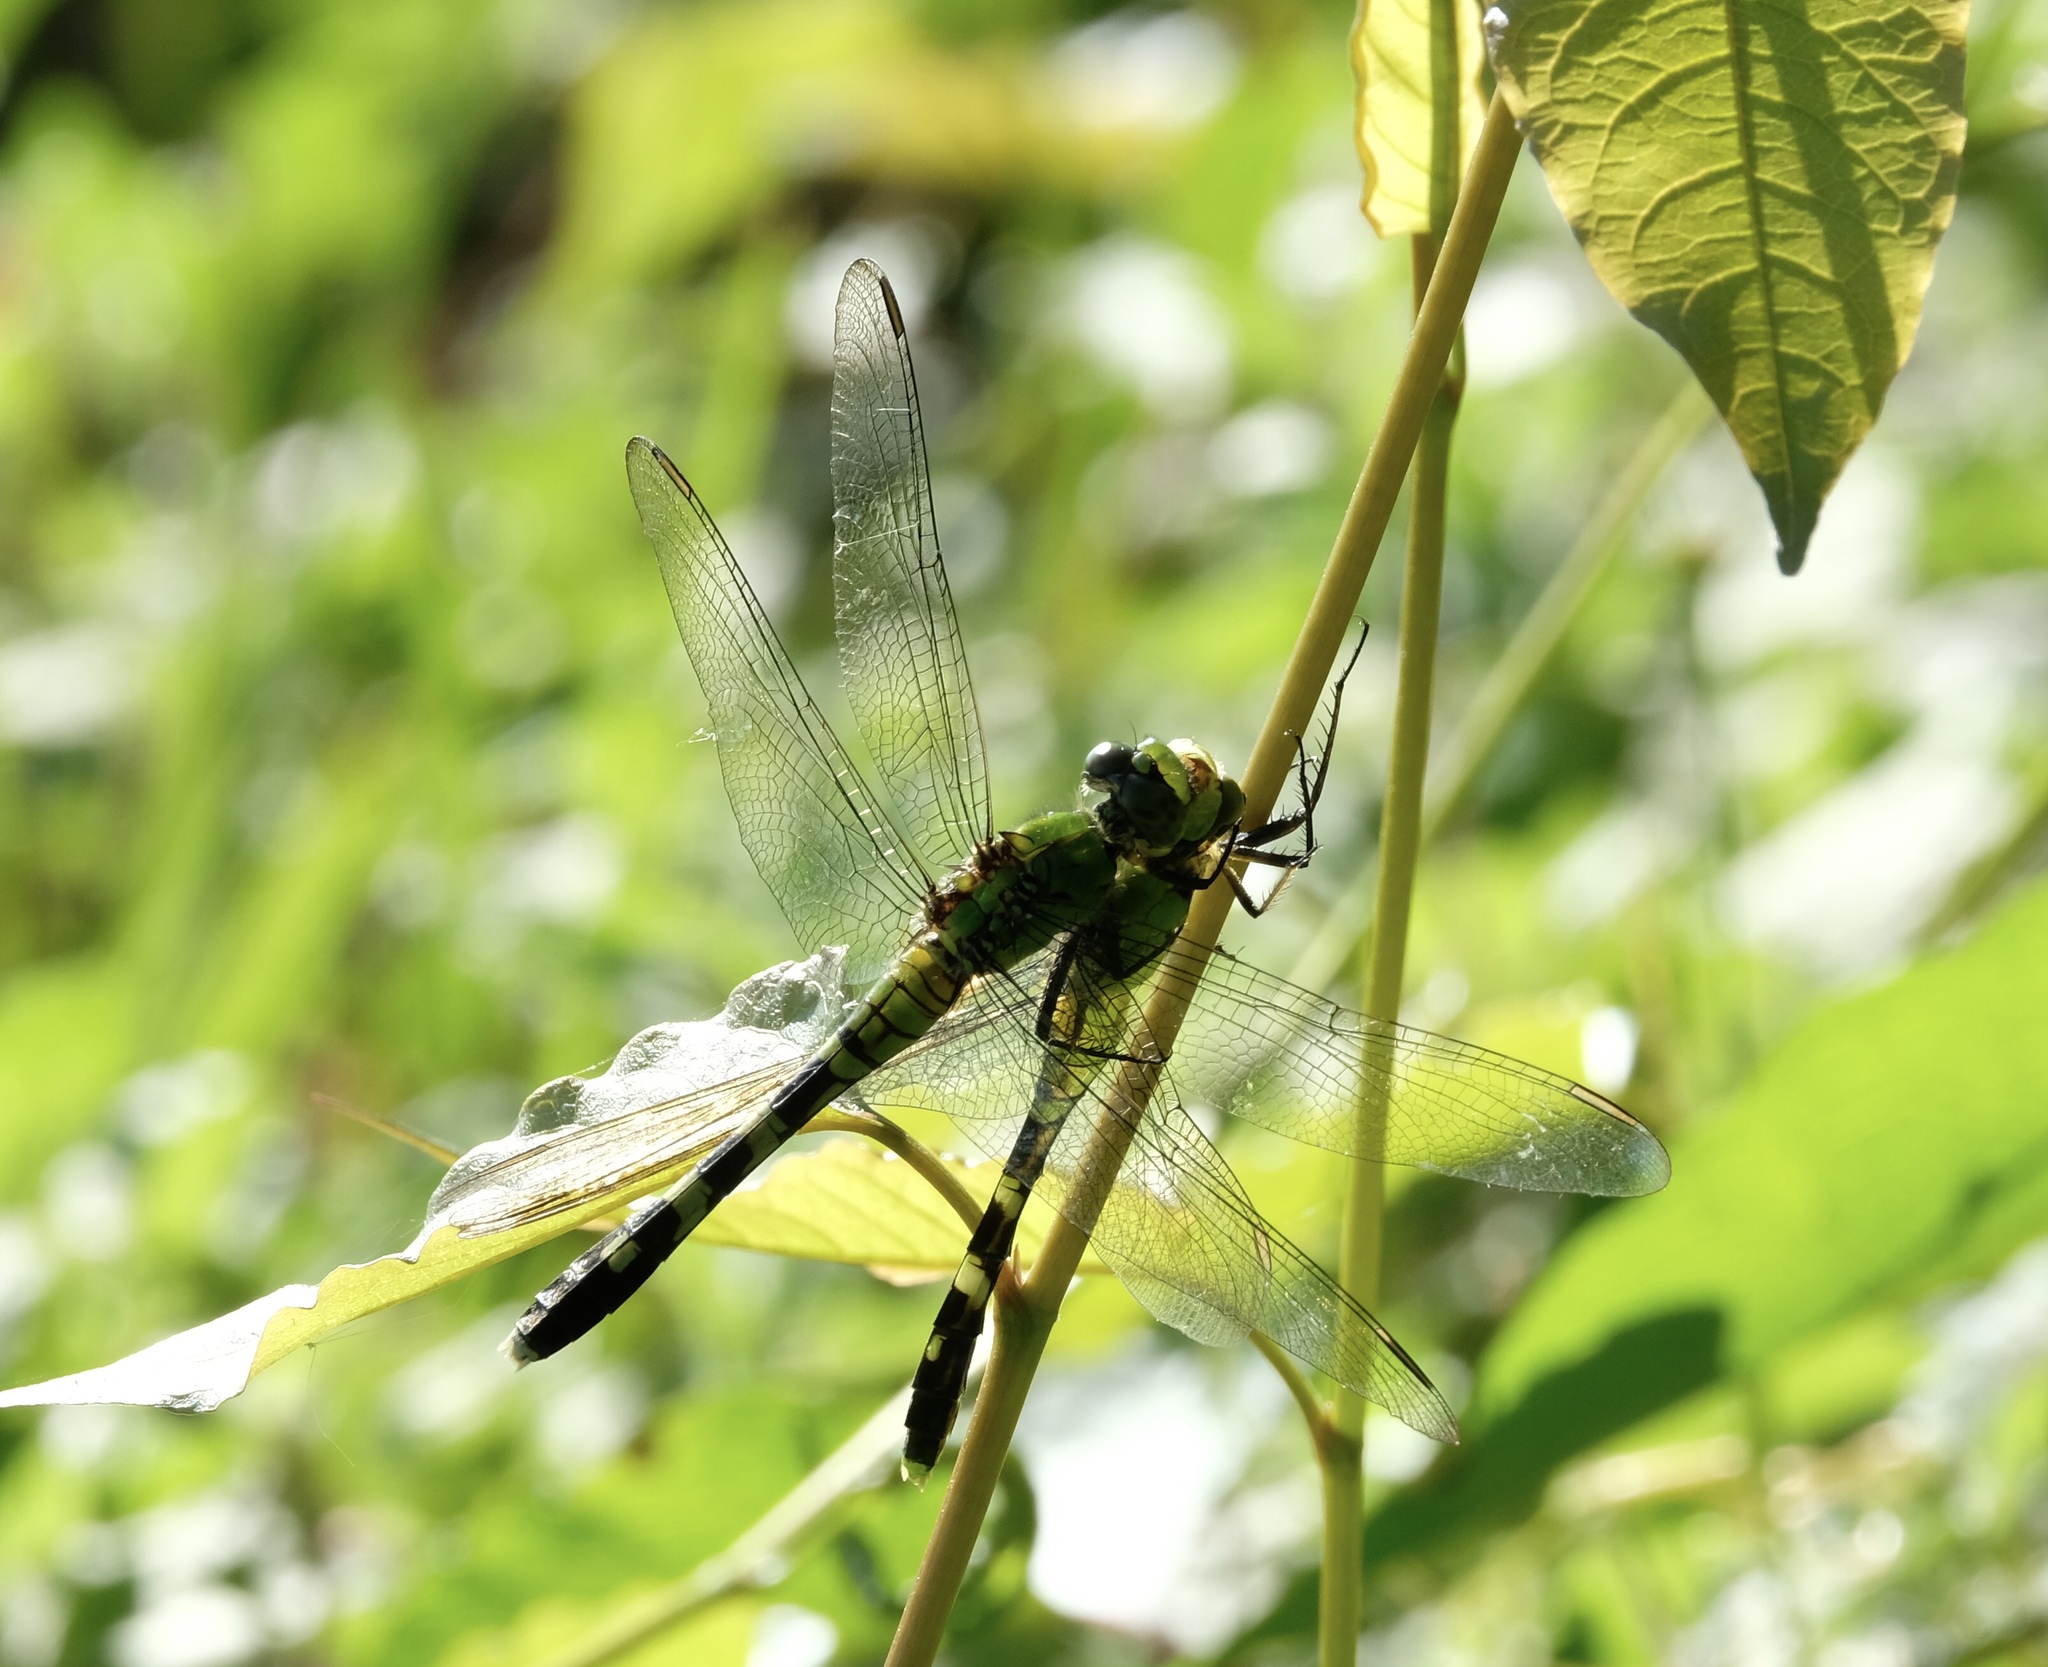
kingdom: Animalia
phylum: Arthropoda
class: Insecta
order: Odonata
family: Libellulidae
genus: Erythemis
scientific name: Erythemis simplicicollis
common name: Eastern pondhawk
